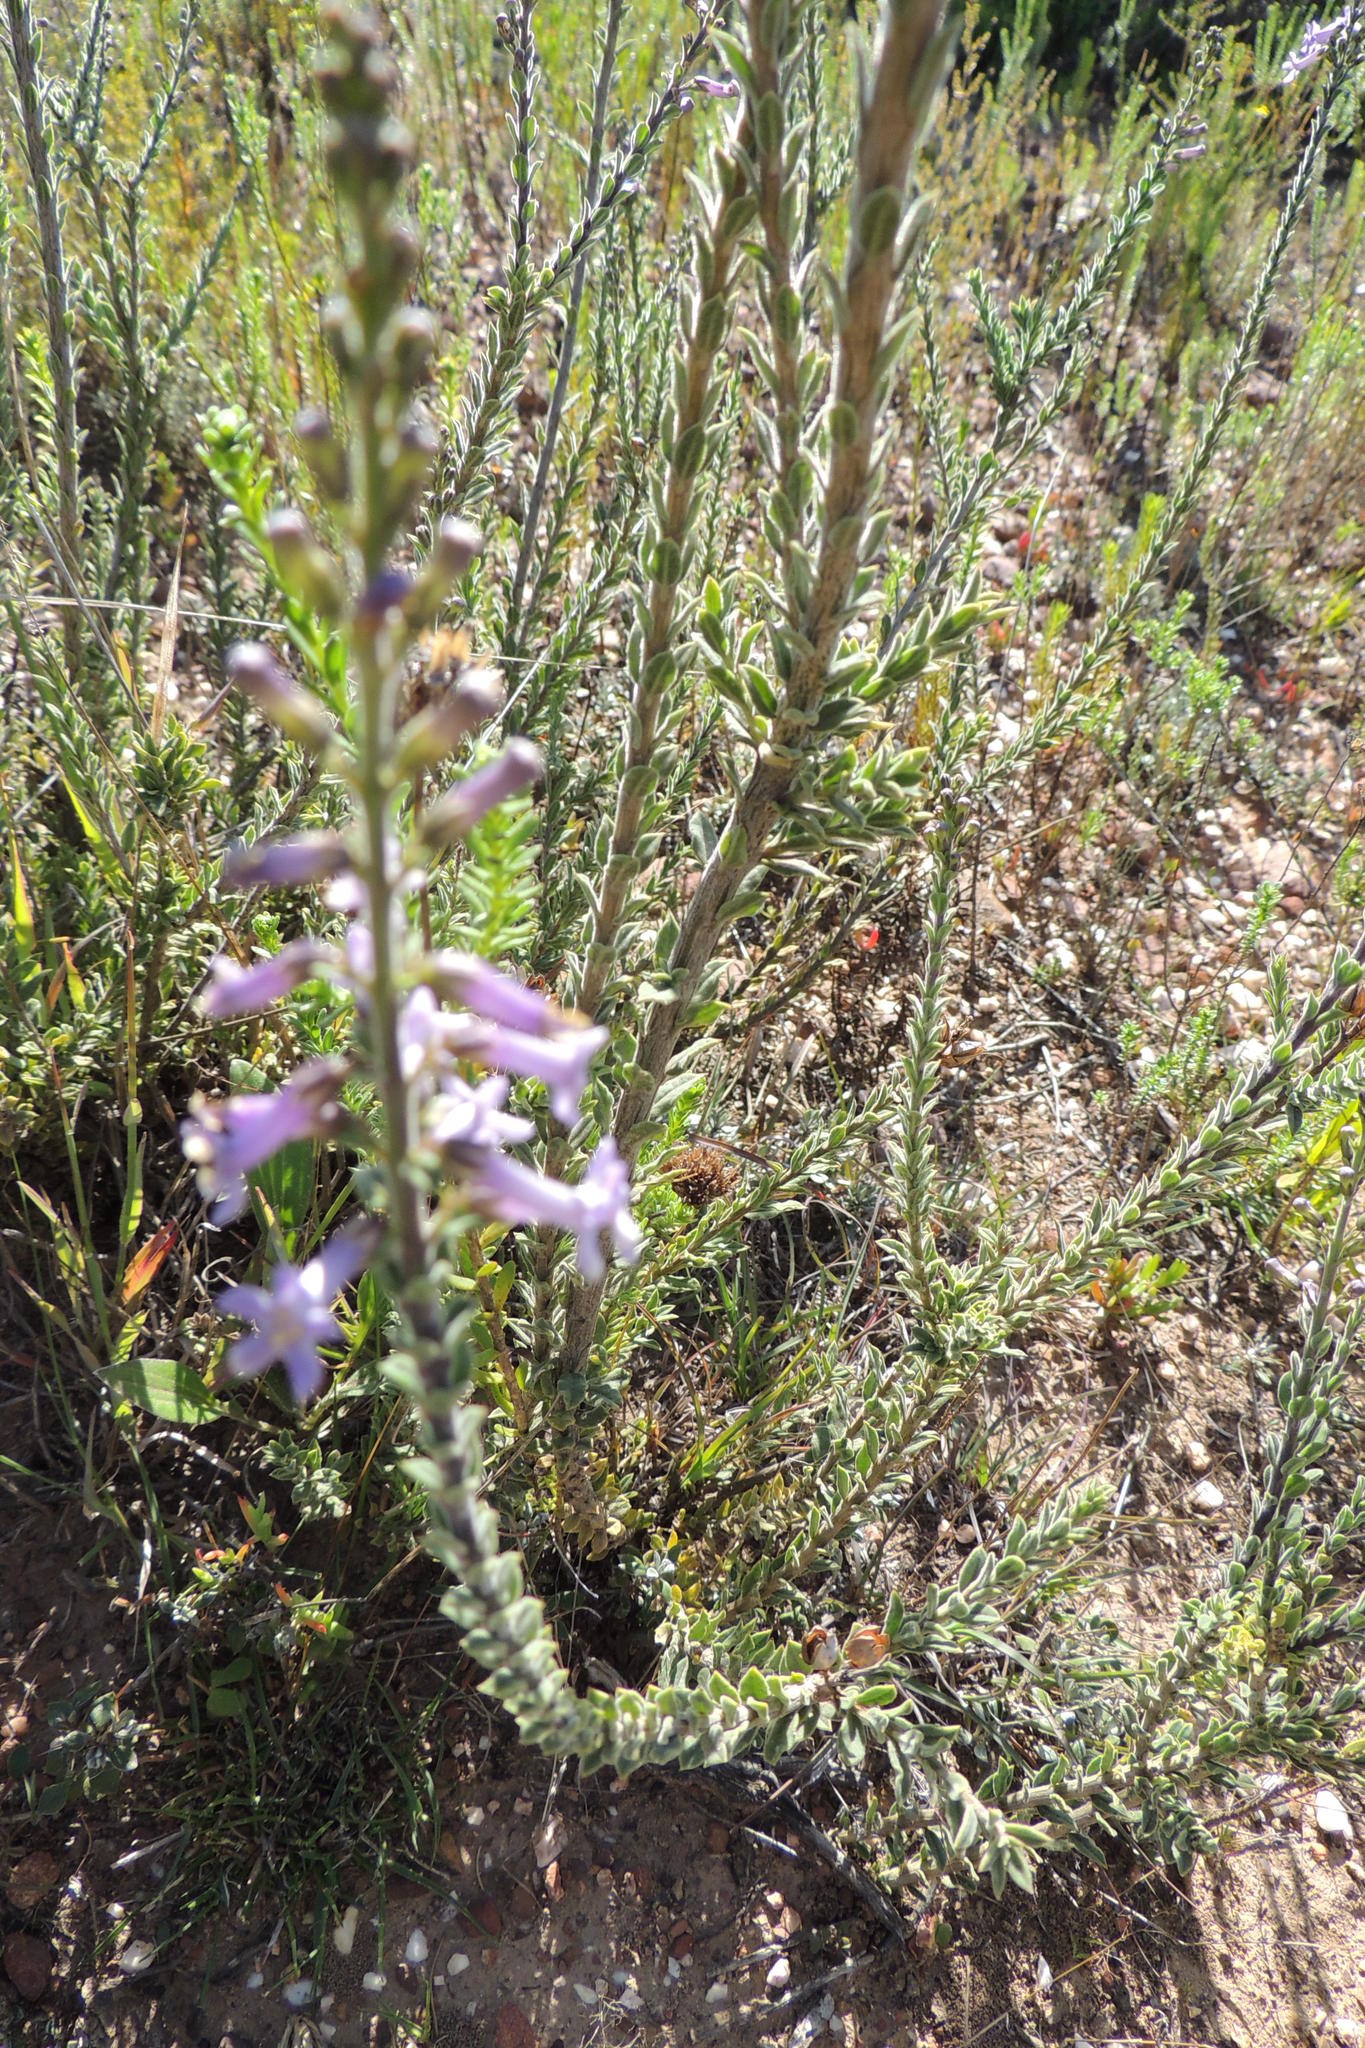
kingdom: Plantae
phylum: Tracheophyta
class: Magnoliopsida
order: Lamiales
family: Scrophulariaceae
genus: Freylinia
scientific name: Freylinia undulata
